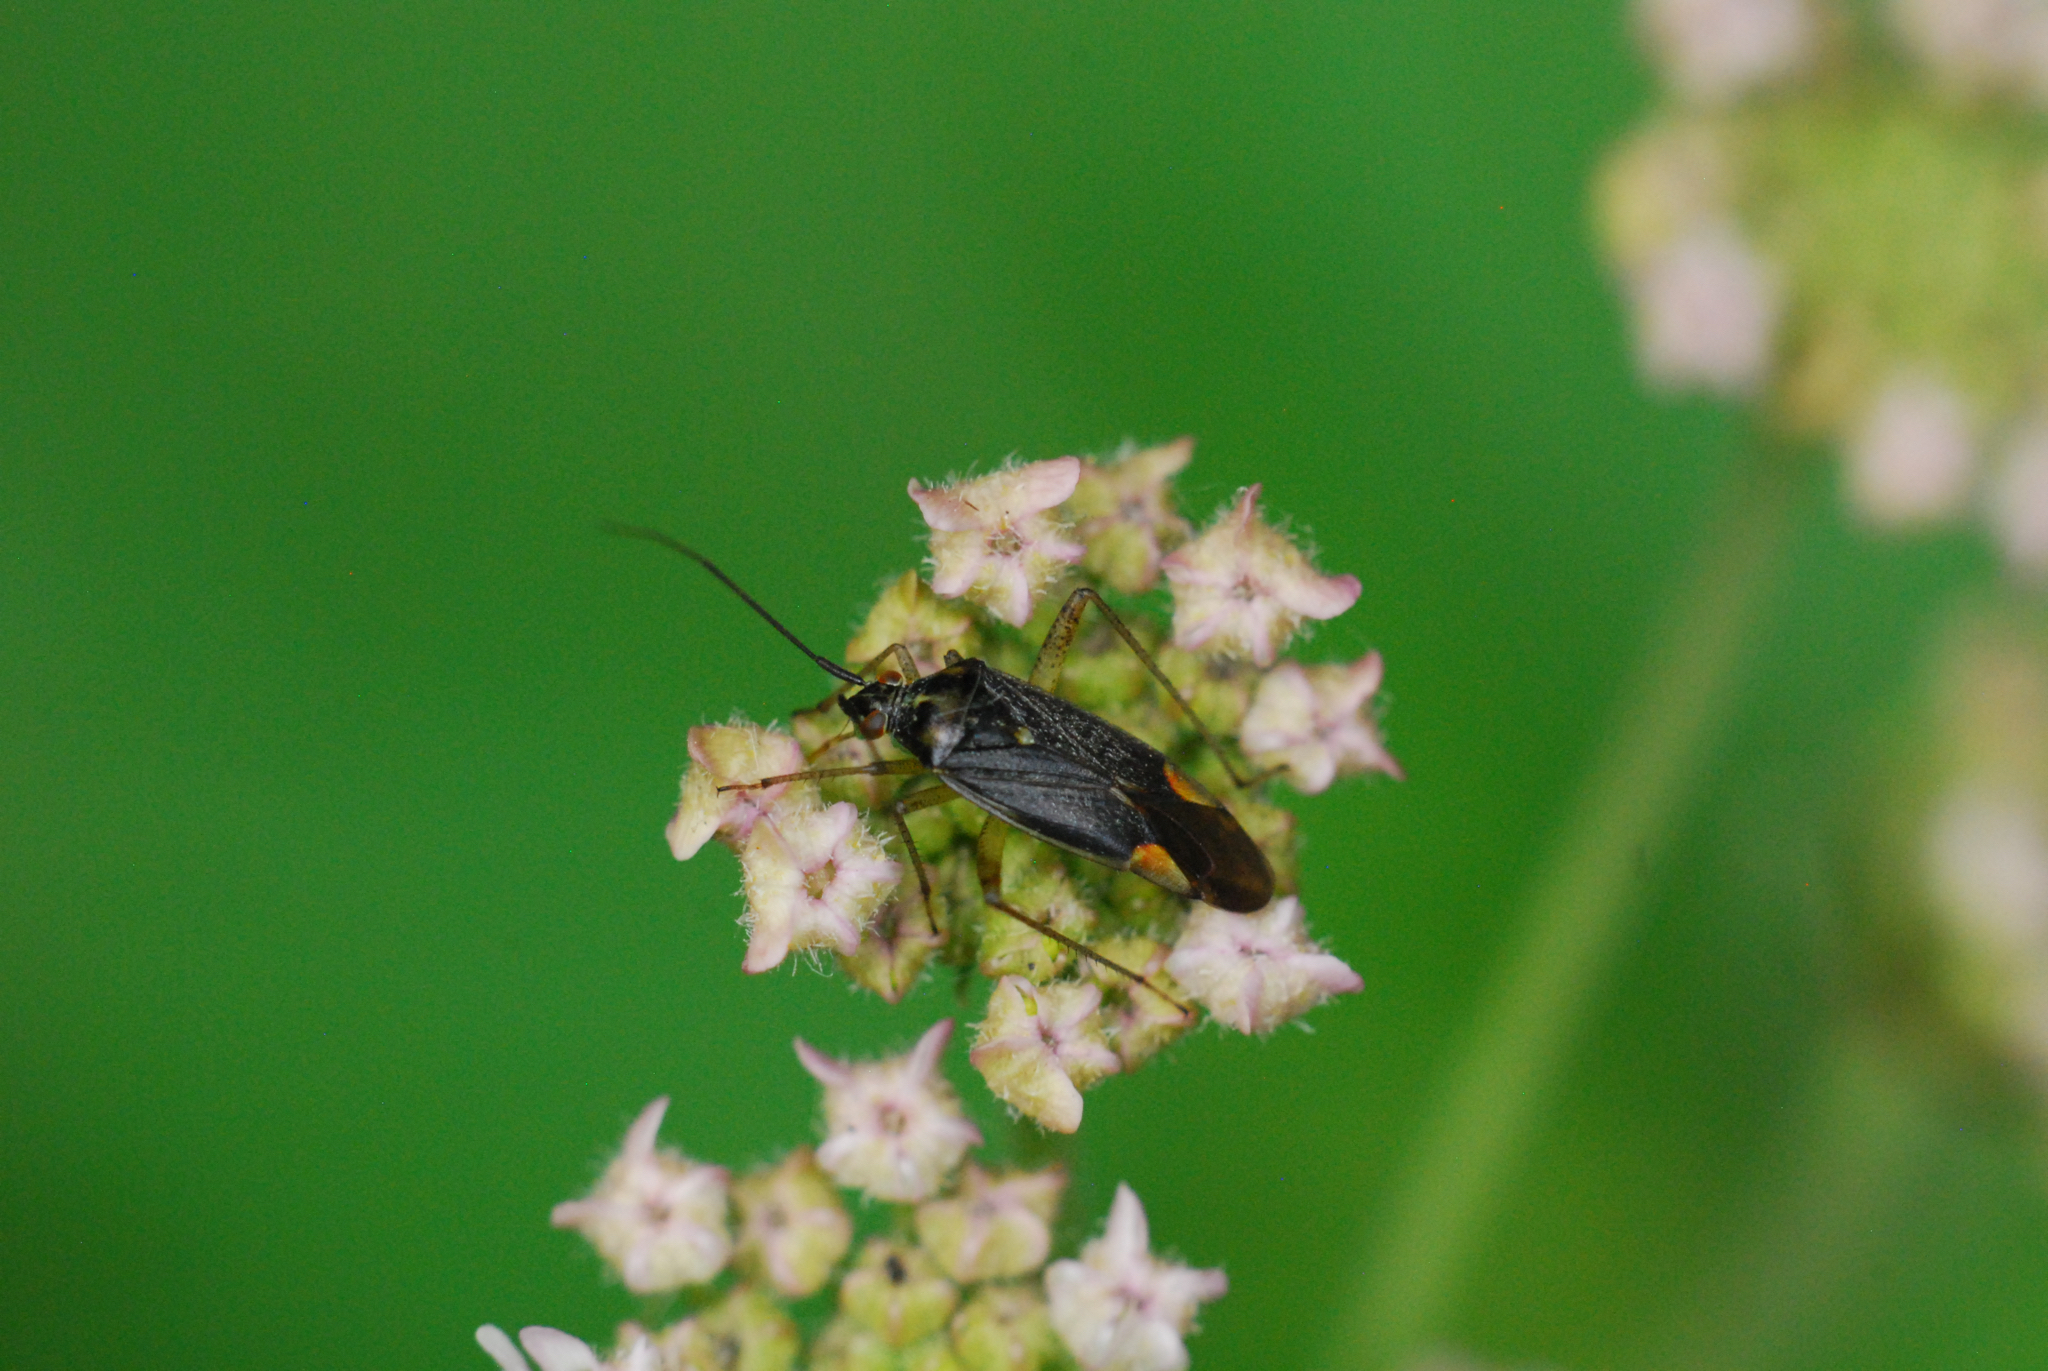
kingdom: Animalia
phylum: Arthropoda
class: Insecta
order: Hemiptera
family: Miridae
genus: Closterotomus
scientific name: Closterotomus trivialis
